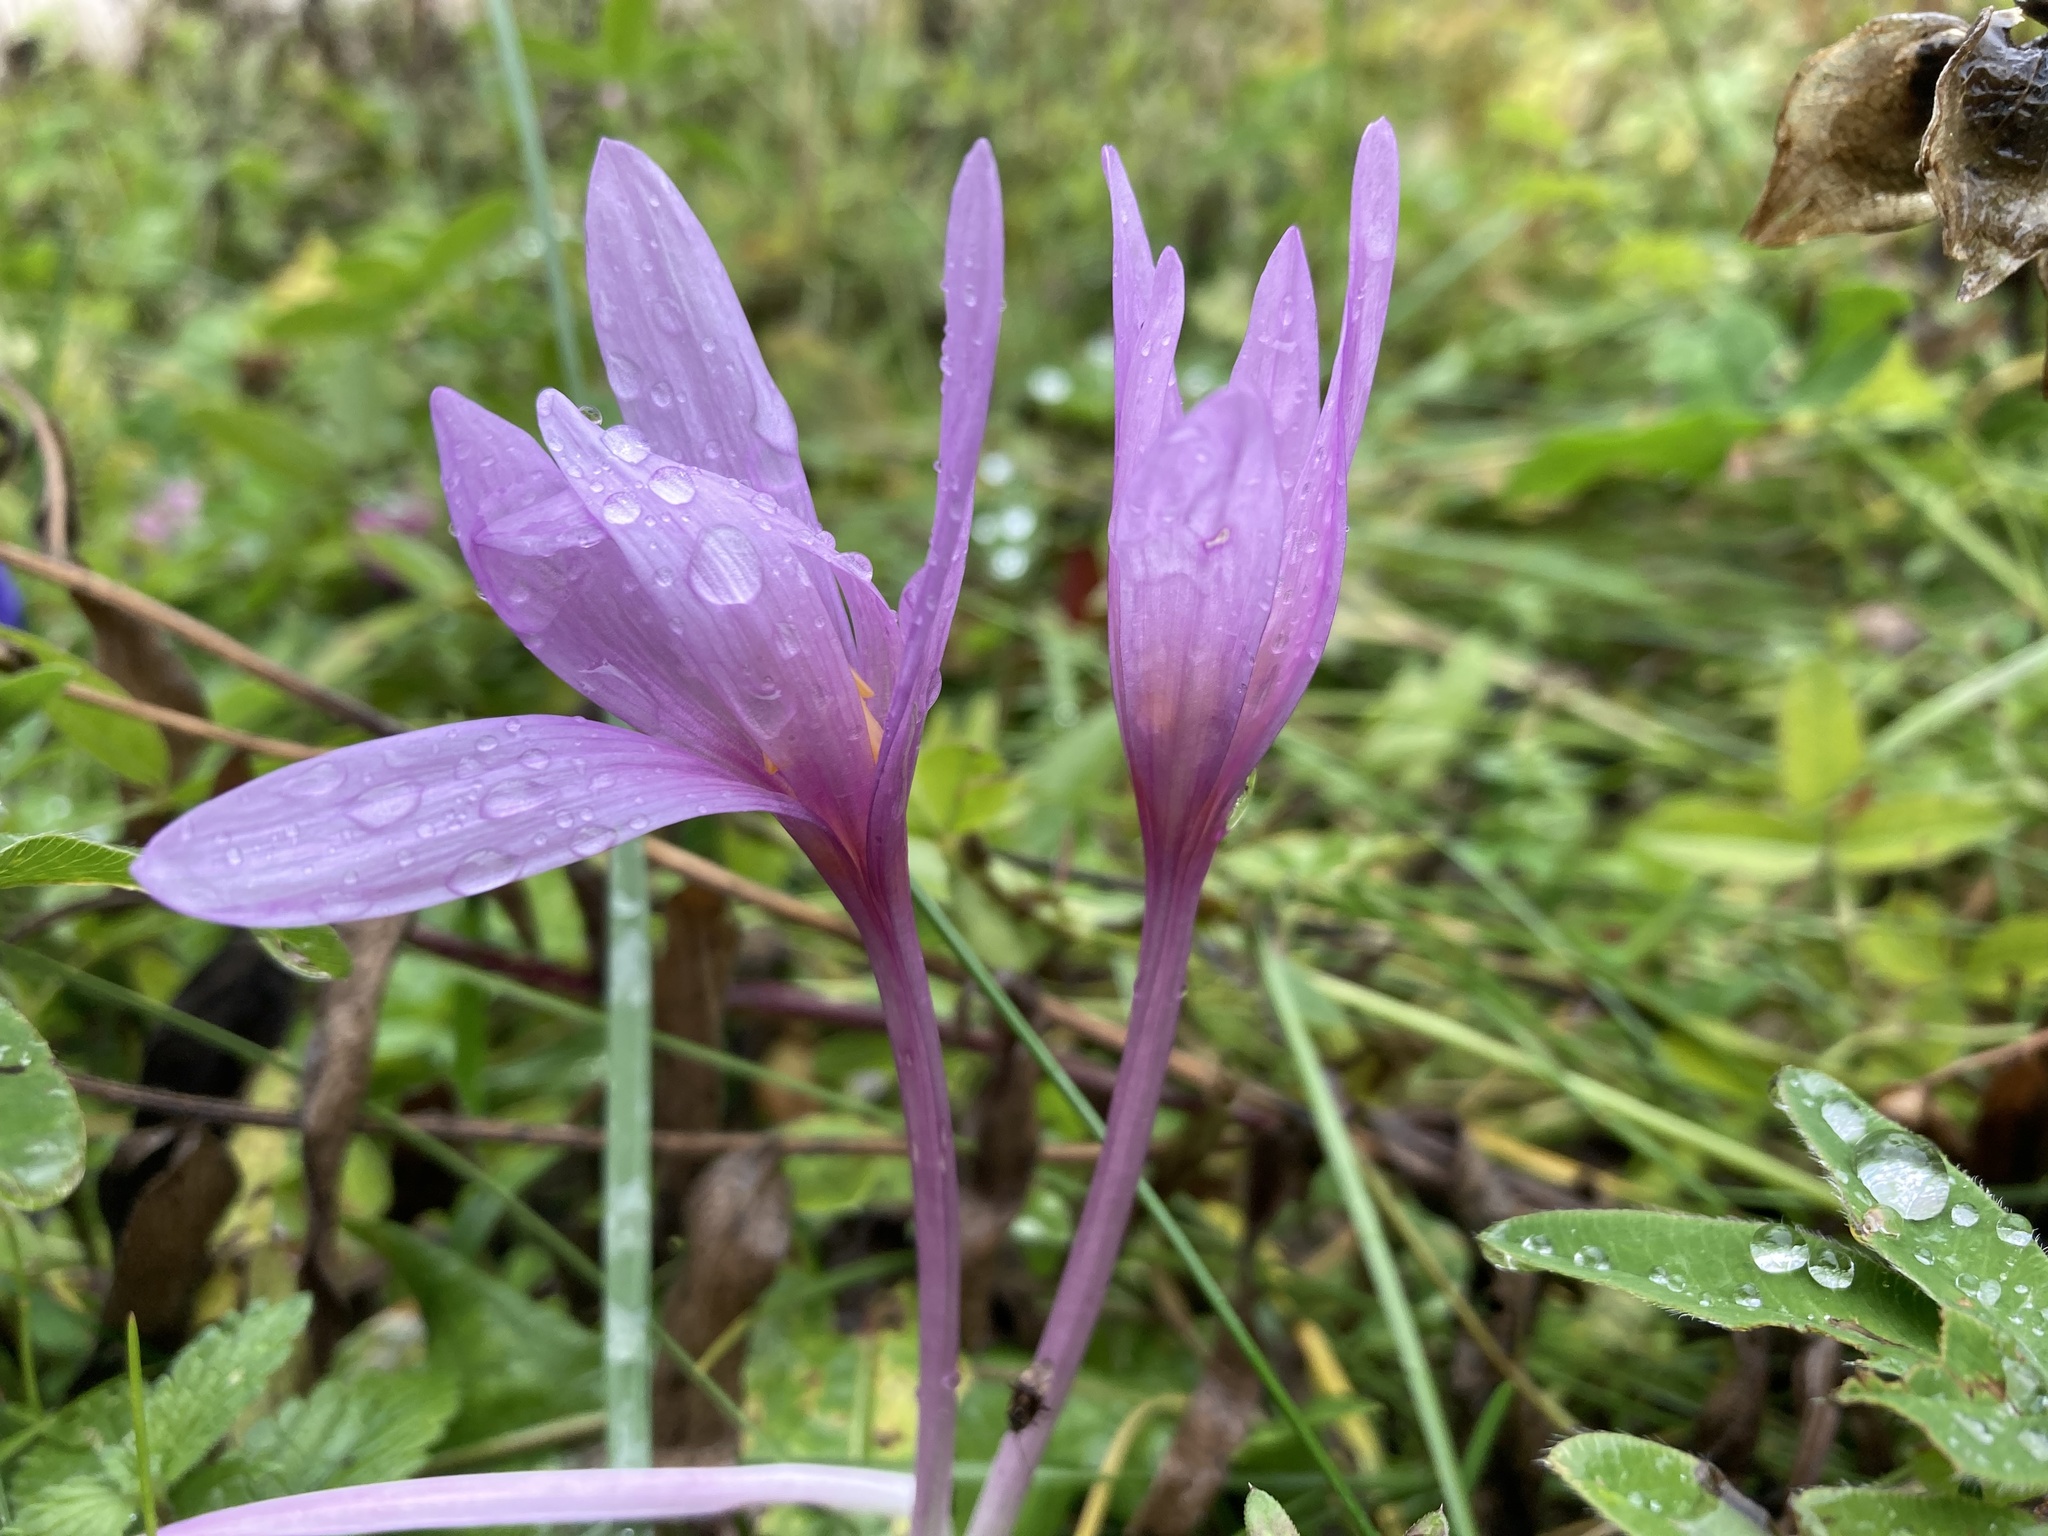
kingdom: Plantae
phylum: Tracheophyta
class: Liliopsida
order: Liliales
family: Colchicaceae
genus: Colchicum
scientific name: Colchicum autumnale
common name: Autumn crocus
